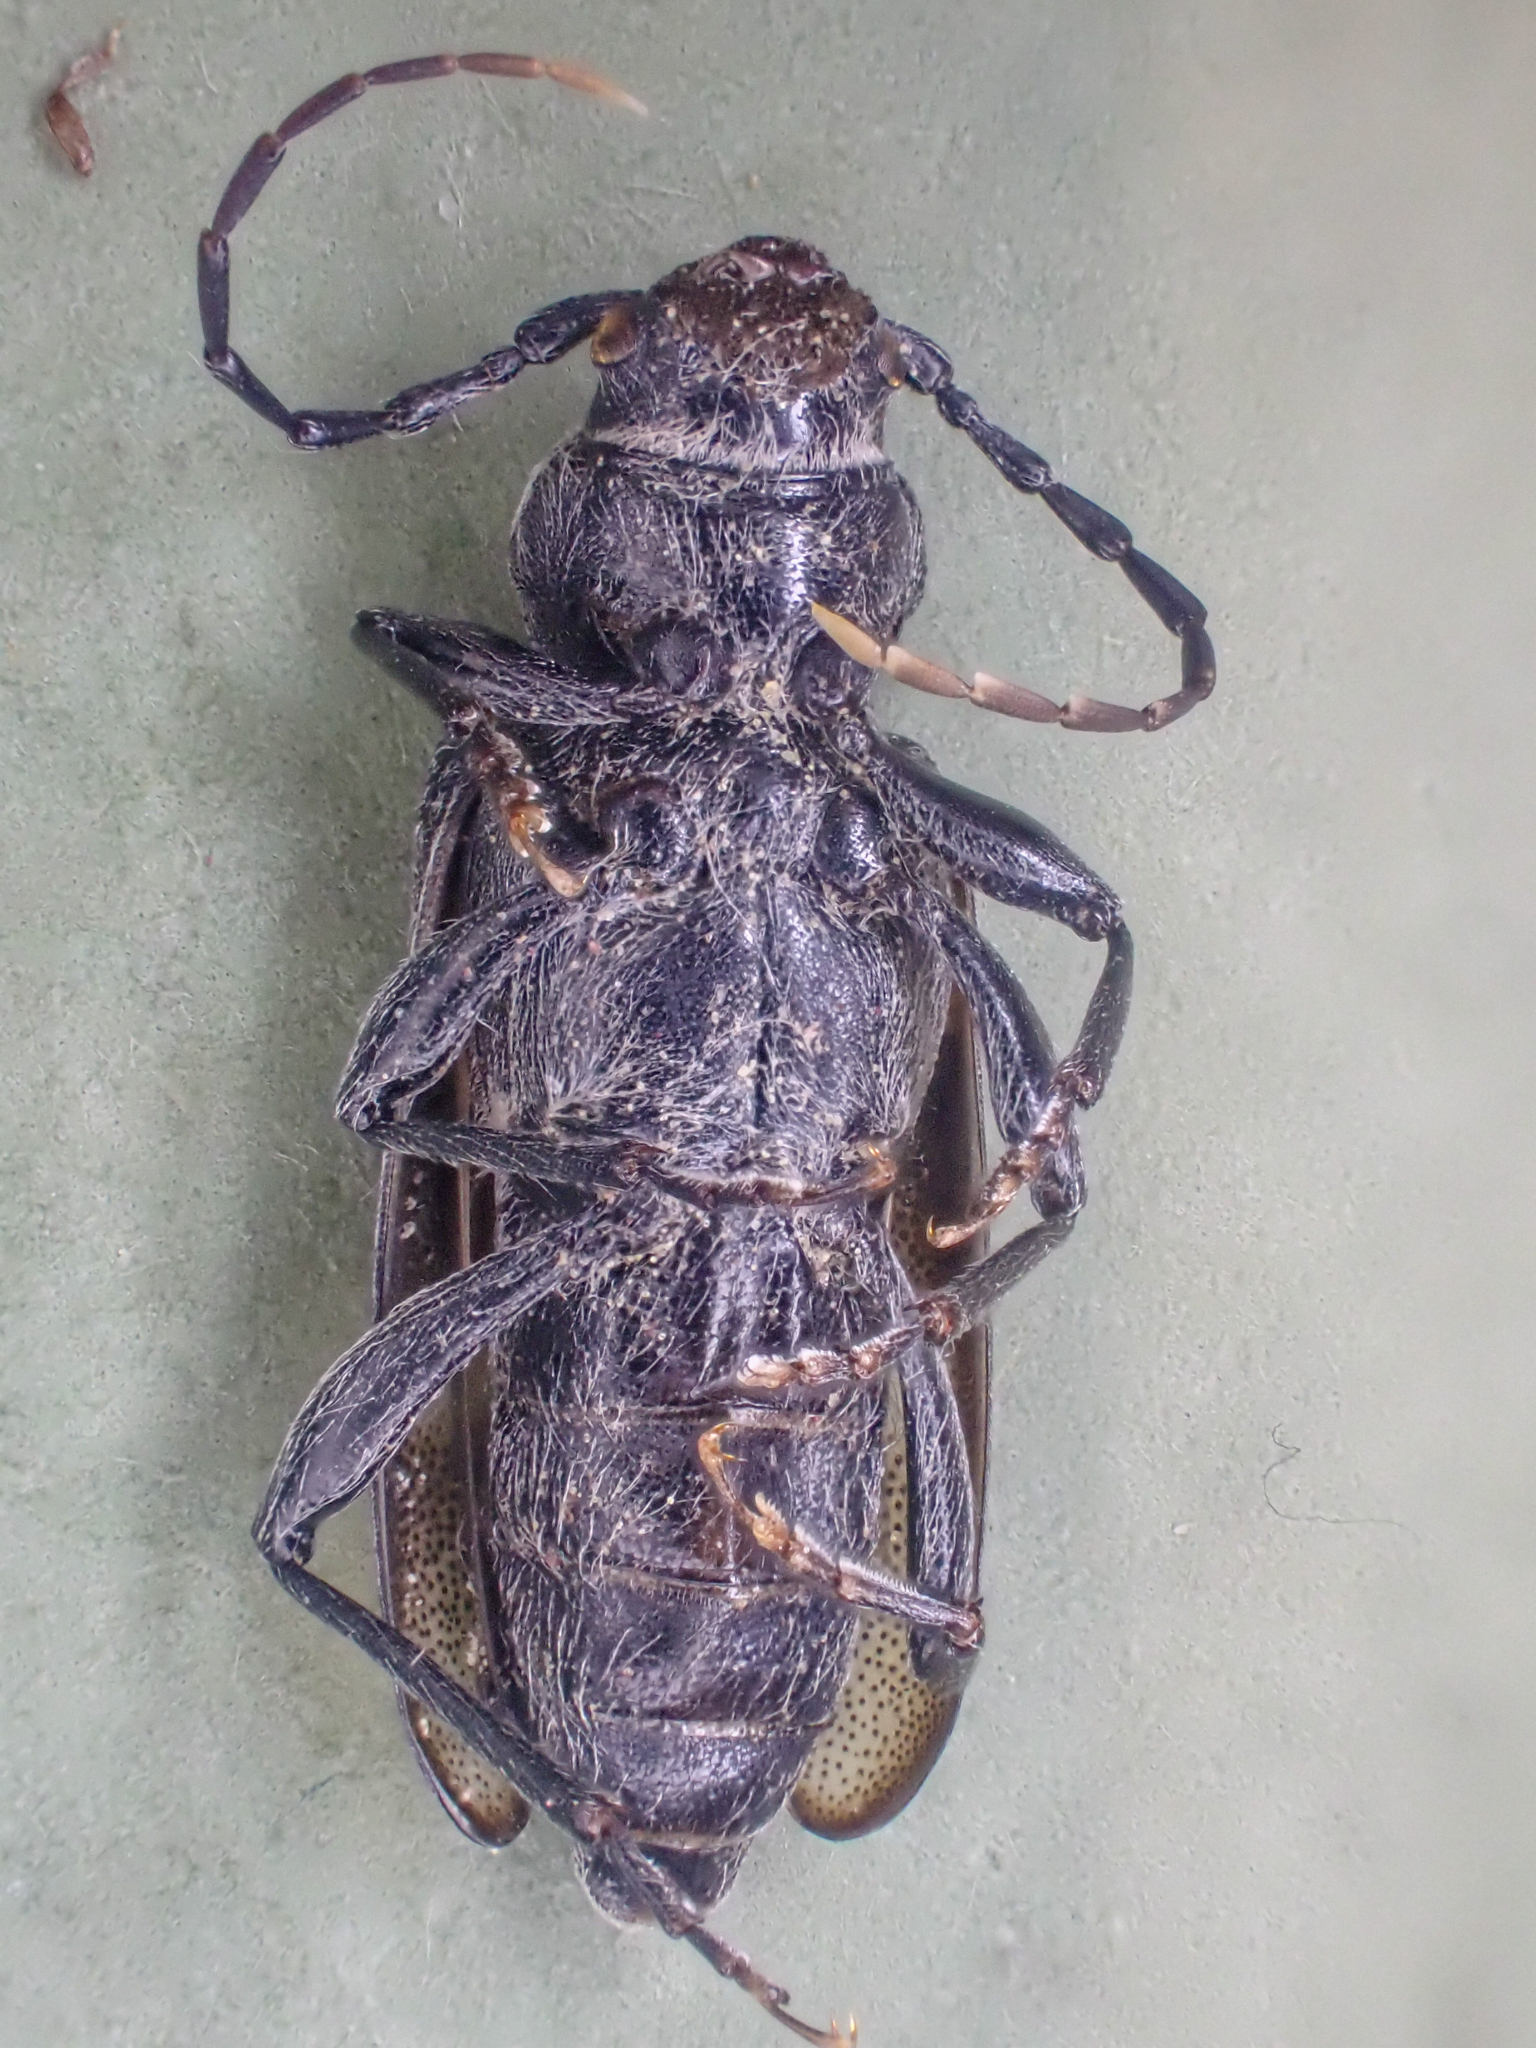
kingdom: Animalia
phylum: Arthropoda
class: Insecta
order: Coleoptera
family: Cerambycidae
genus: Semanotus
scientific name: Semanotus litigiosus
